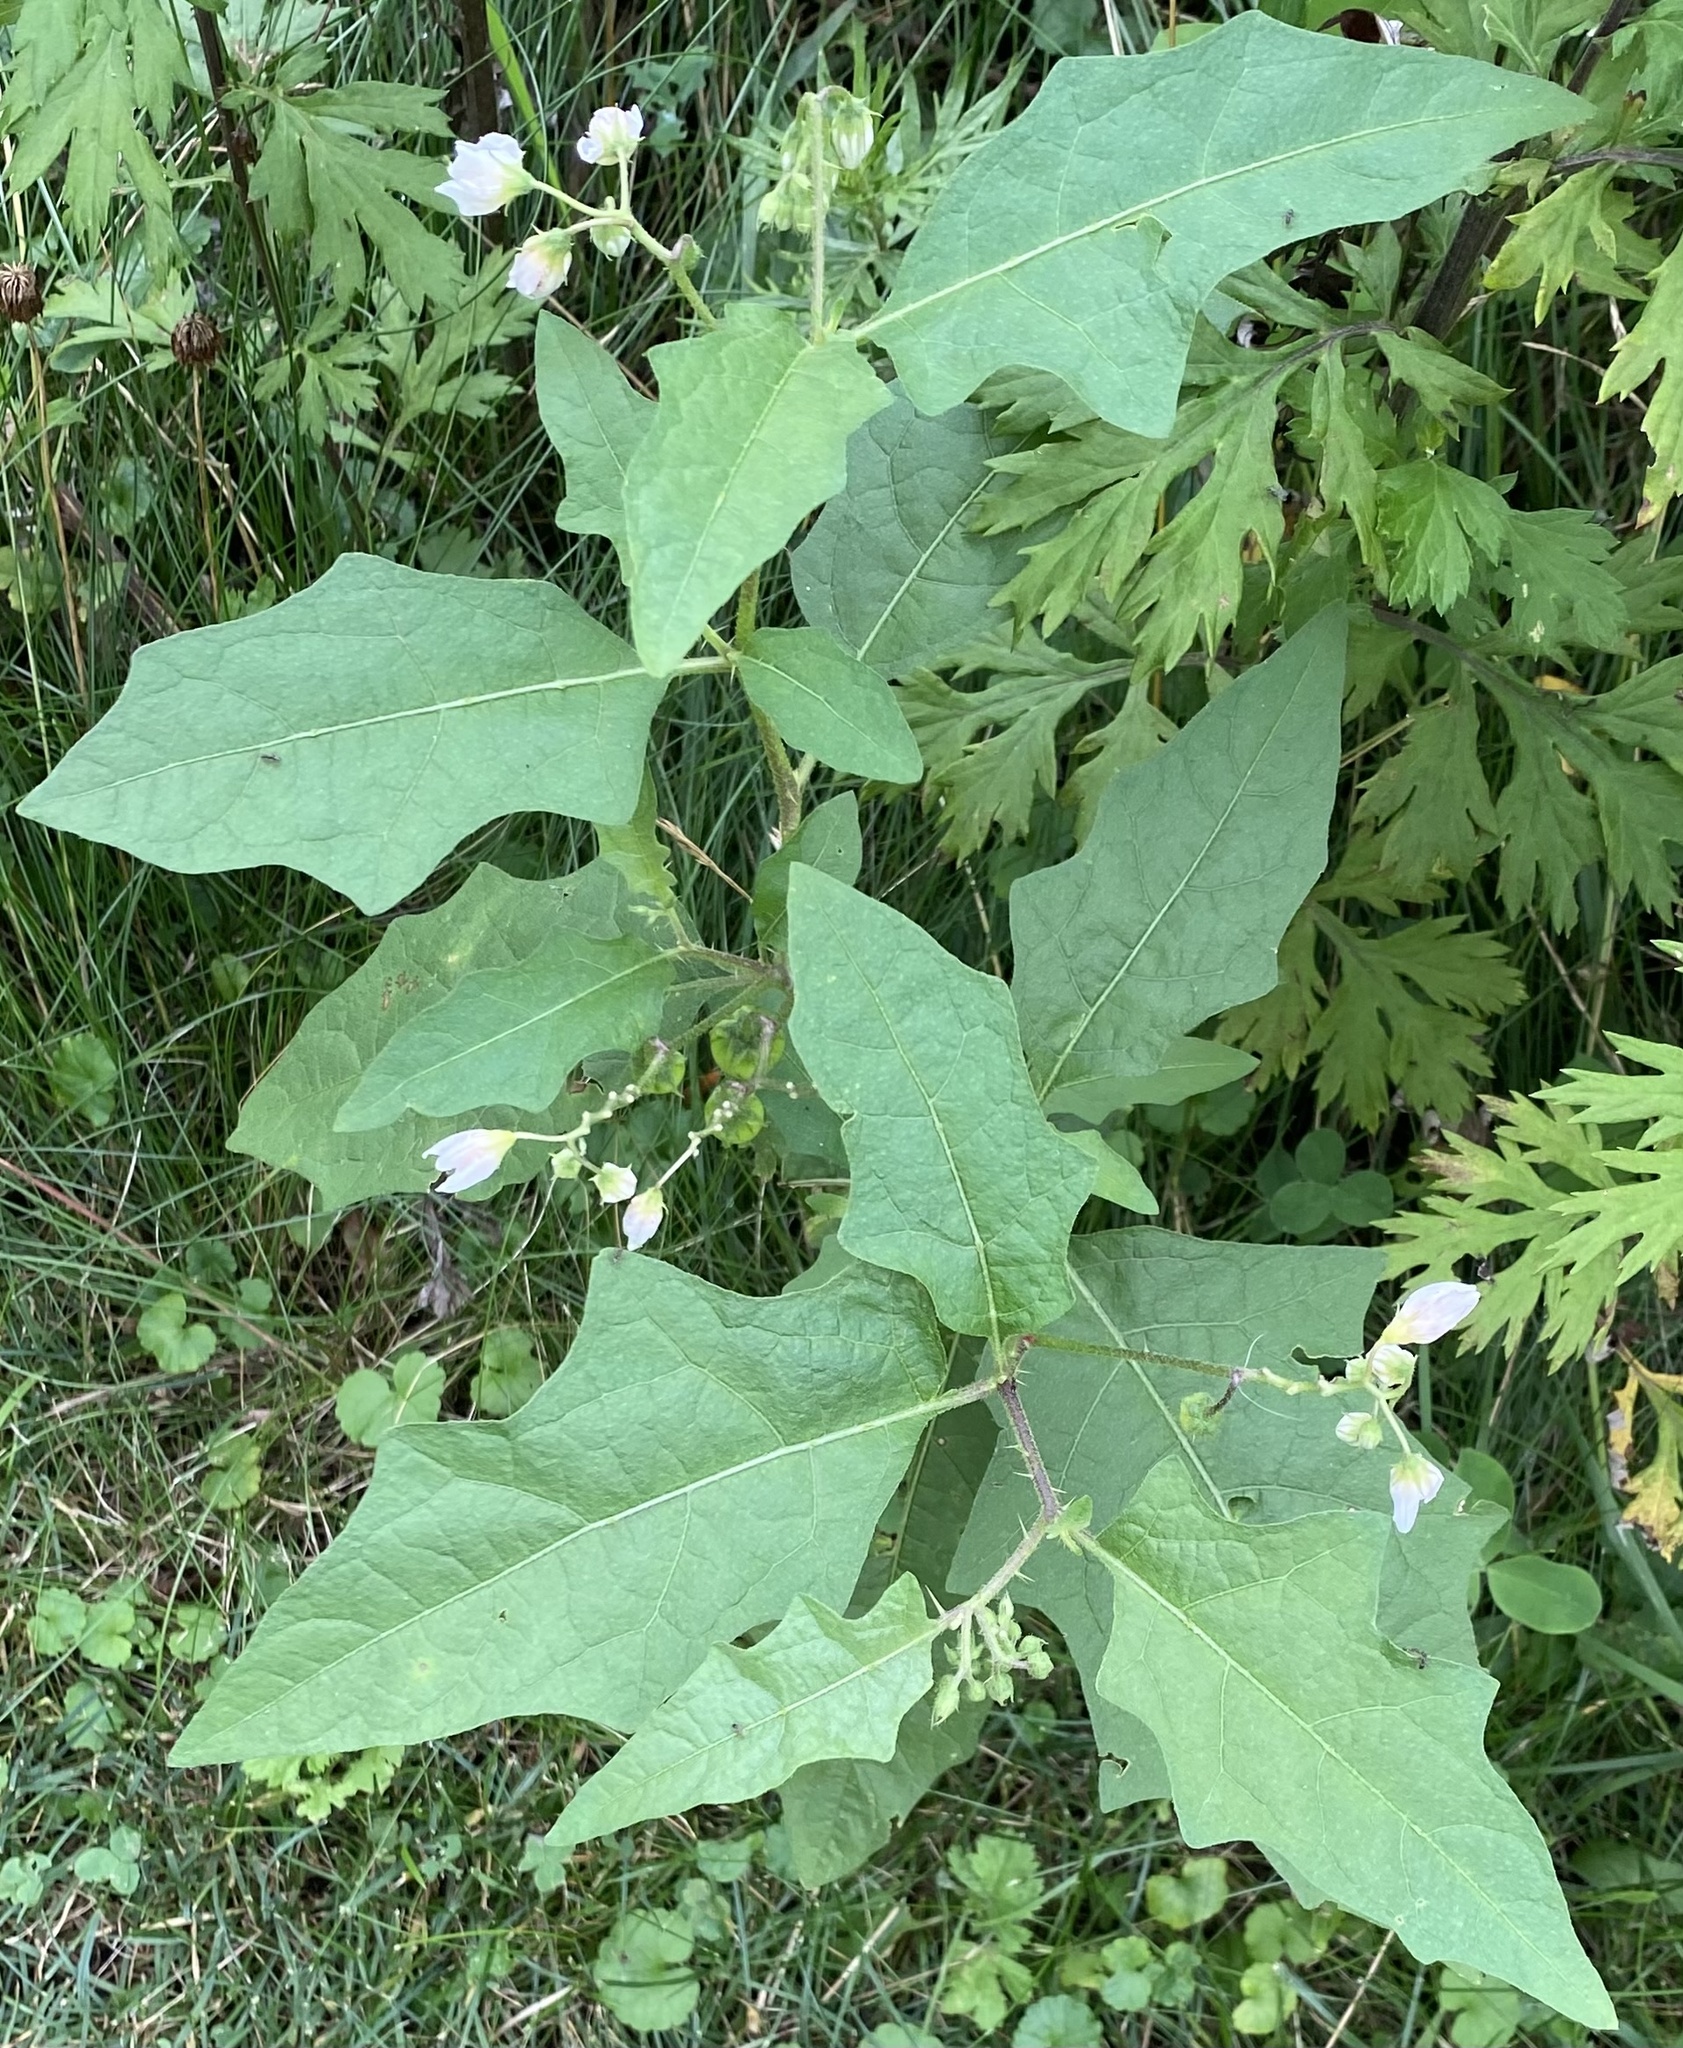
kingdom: Plantae
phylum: Tracheophyta
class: Magnoliopsida
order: Solanales
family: Solanaceae
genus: Solanum
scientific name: Solanum carolinense
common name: Horse-nettle
